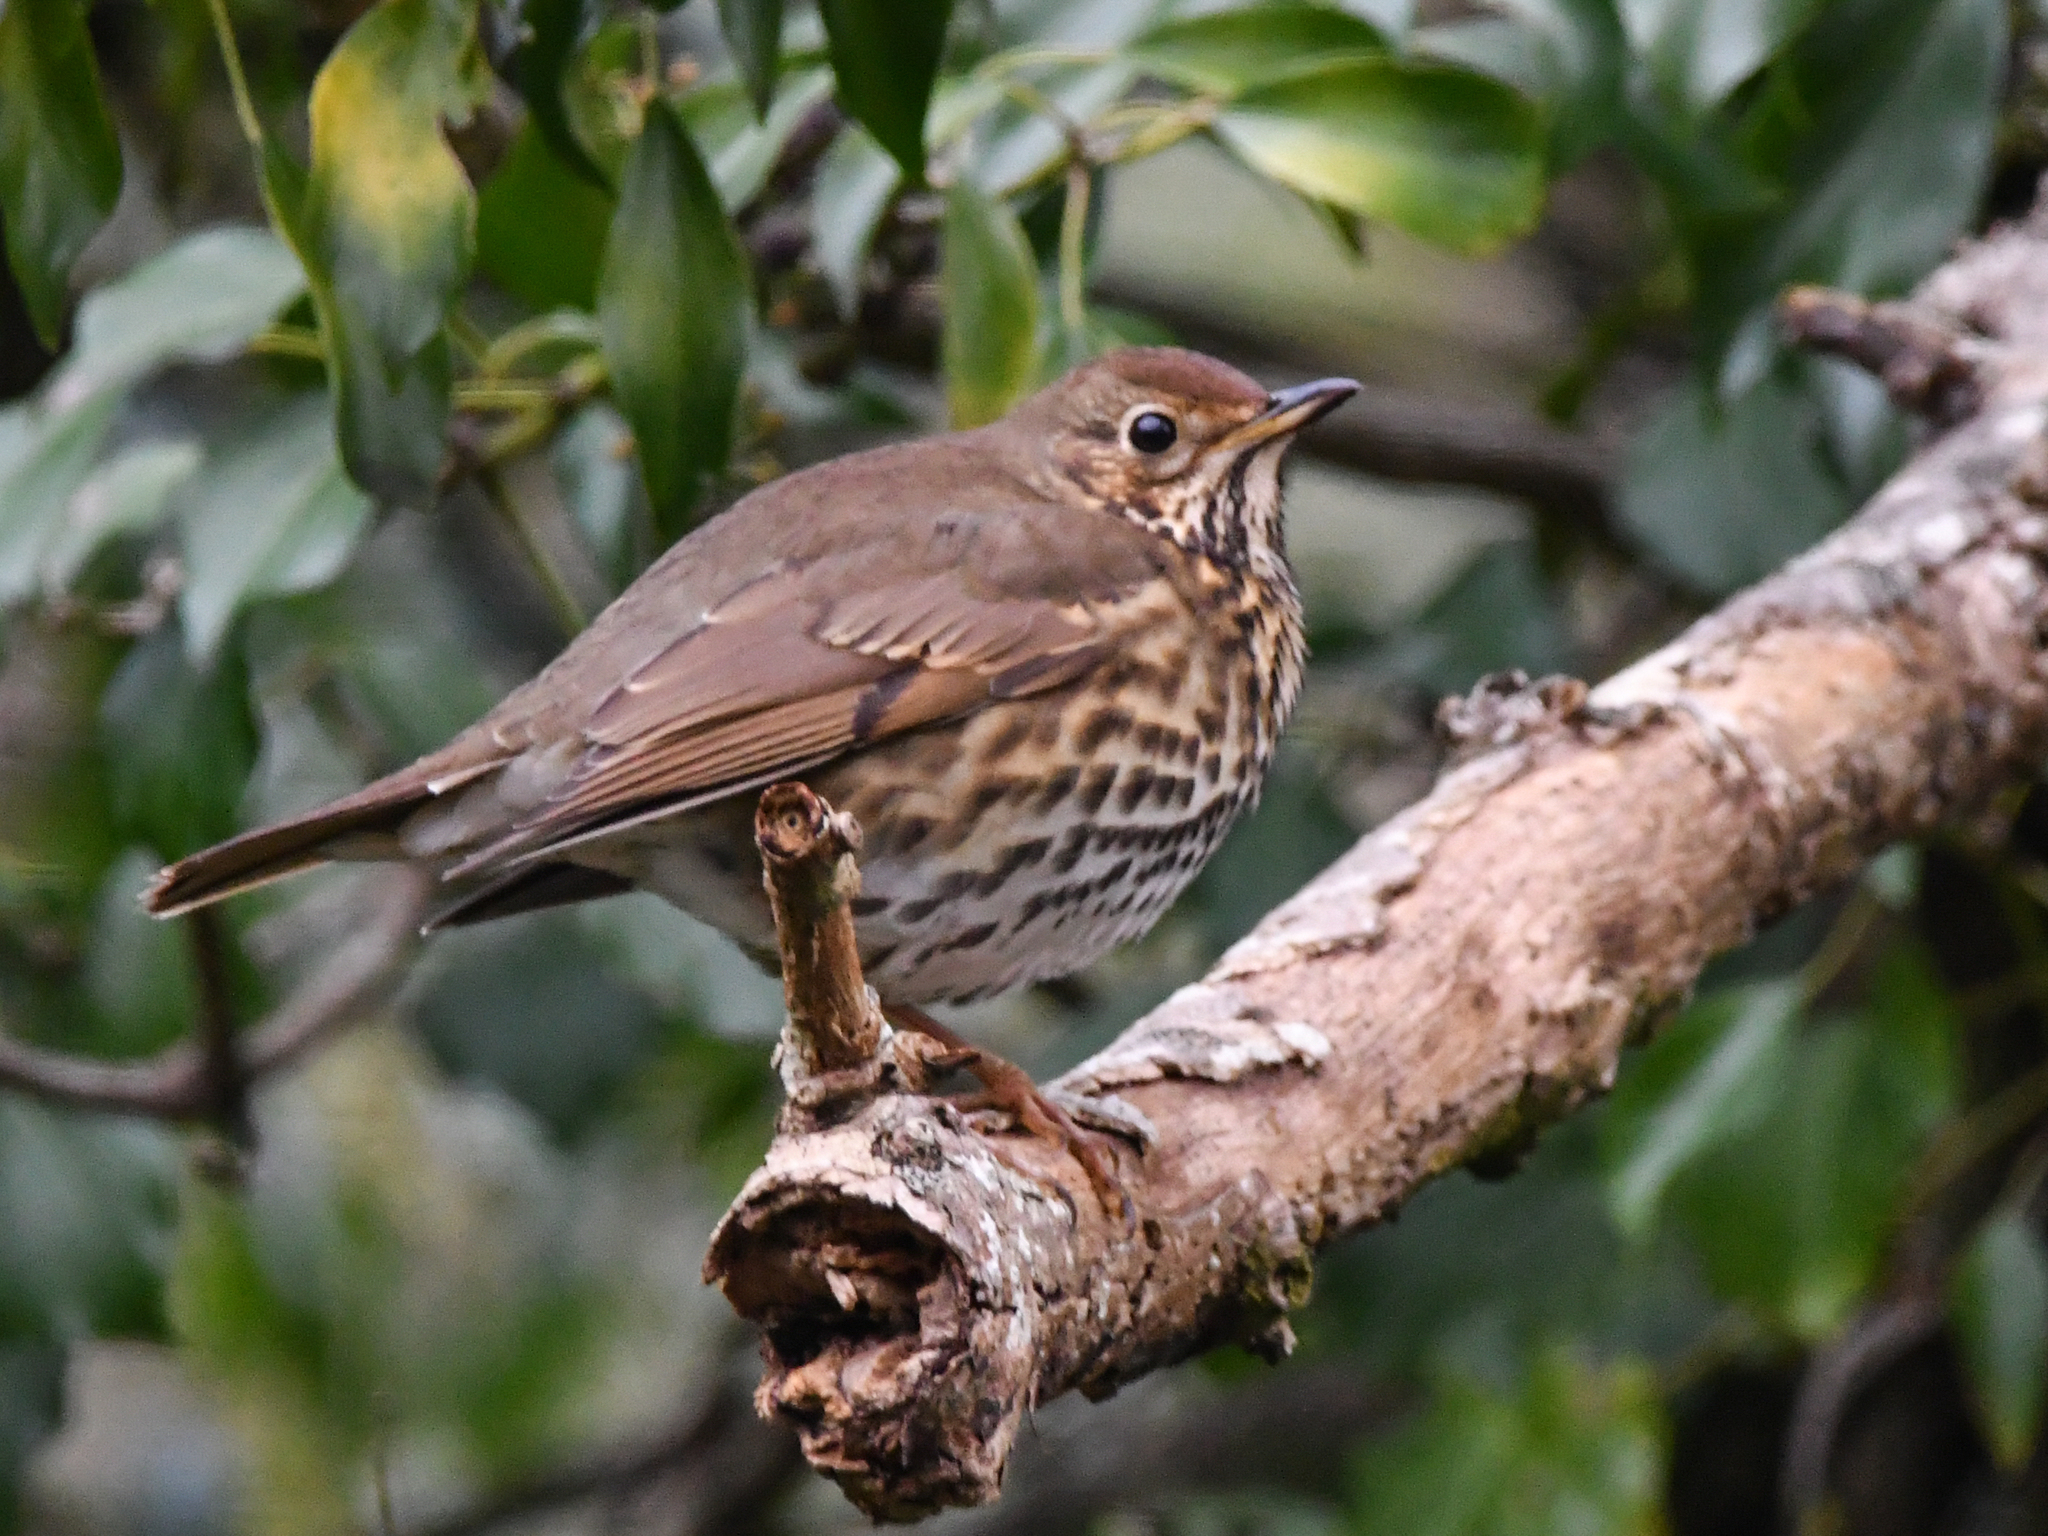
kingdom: Animalia
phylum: Chordata
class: Aves
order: Passeriformes
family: Turdidae
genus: Turdus
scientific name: Turdus philomelos
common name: Song thrush
